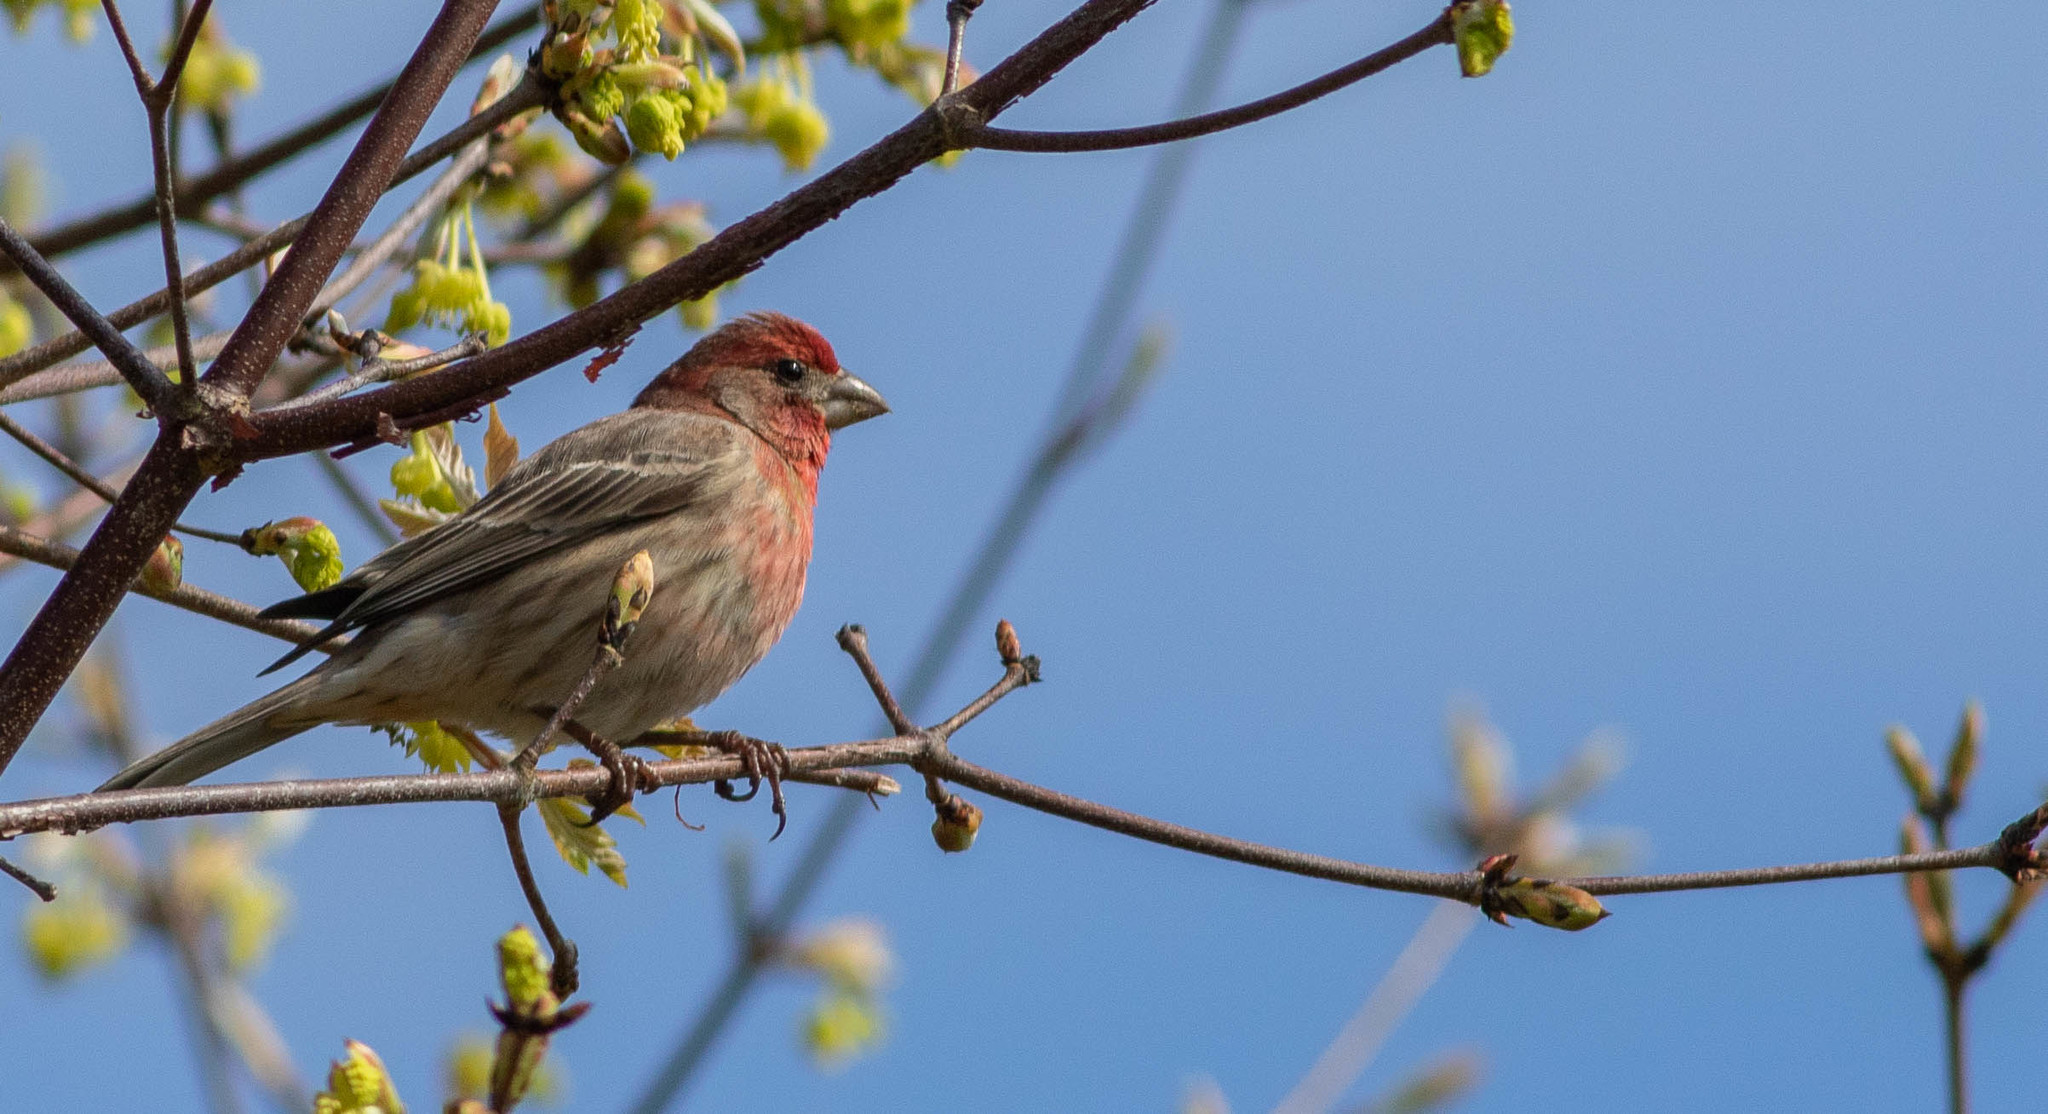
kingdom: Animalia
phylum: Chordata
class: Aves
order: Passeriformes
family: Fringillidae
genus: Haemorhous
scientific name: Haemorhous mexicanus
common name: House finch
